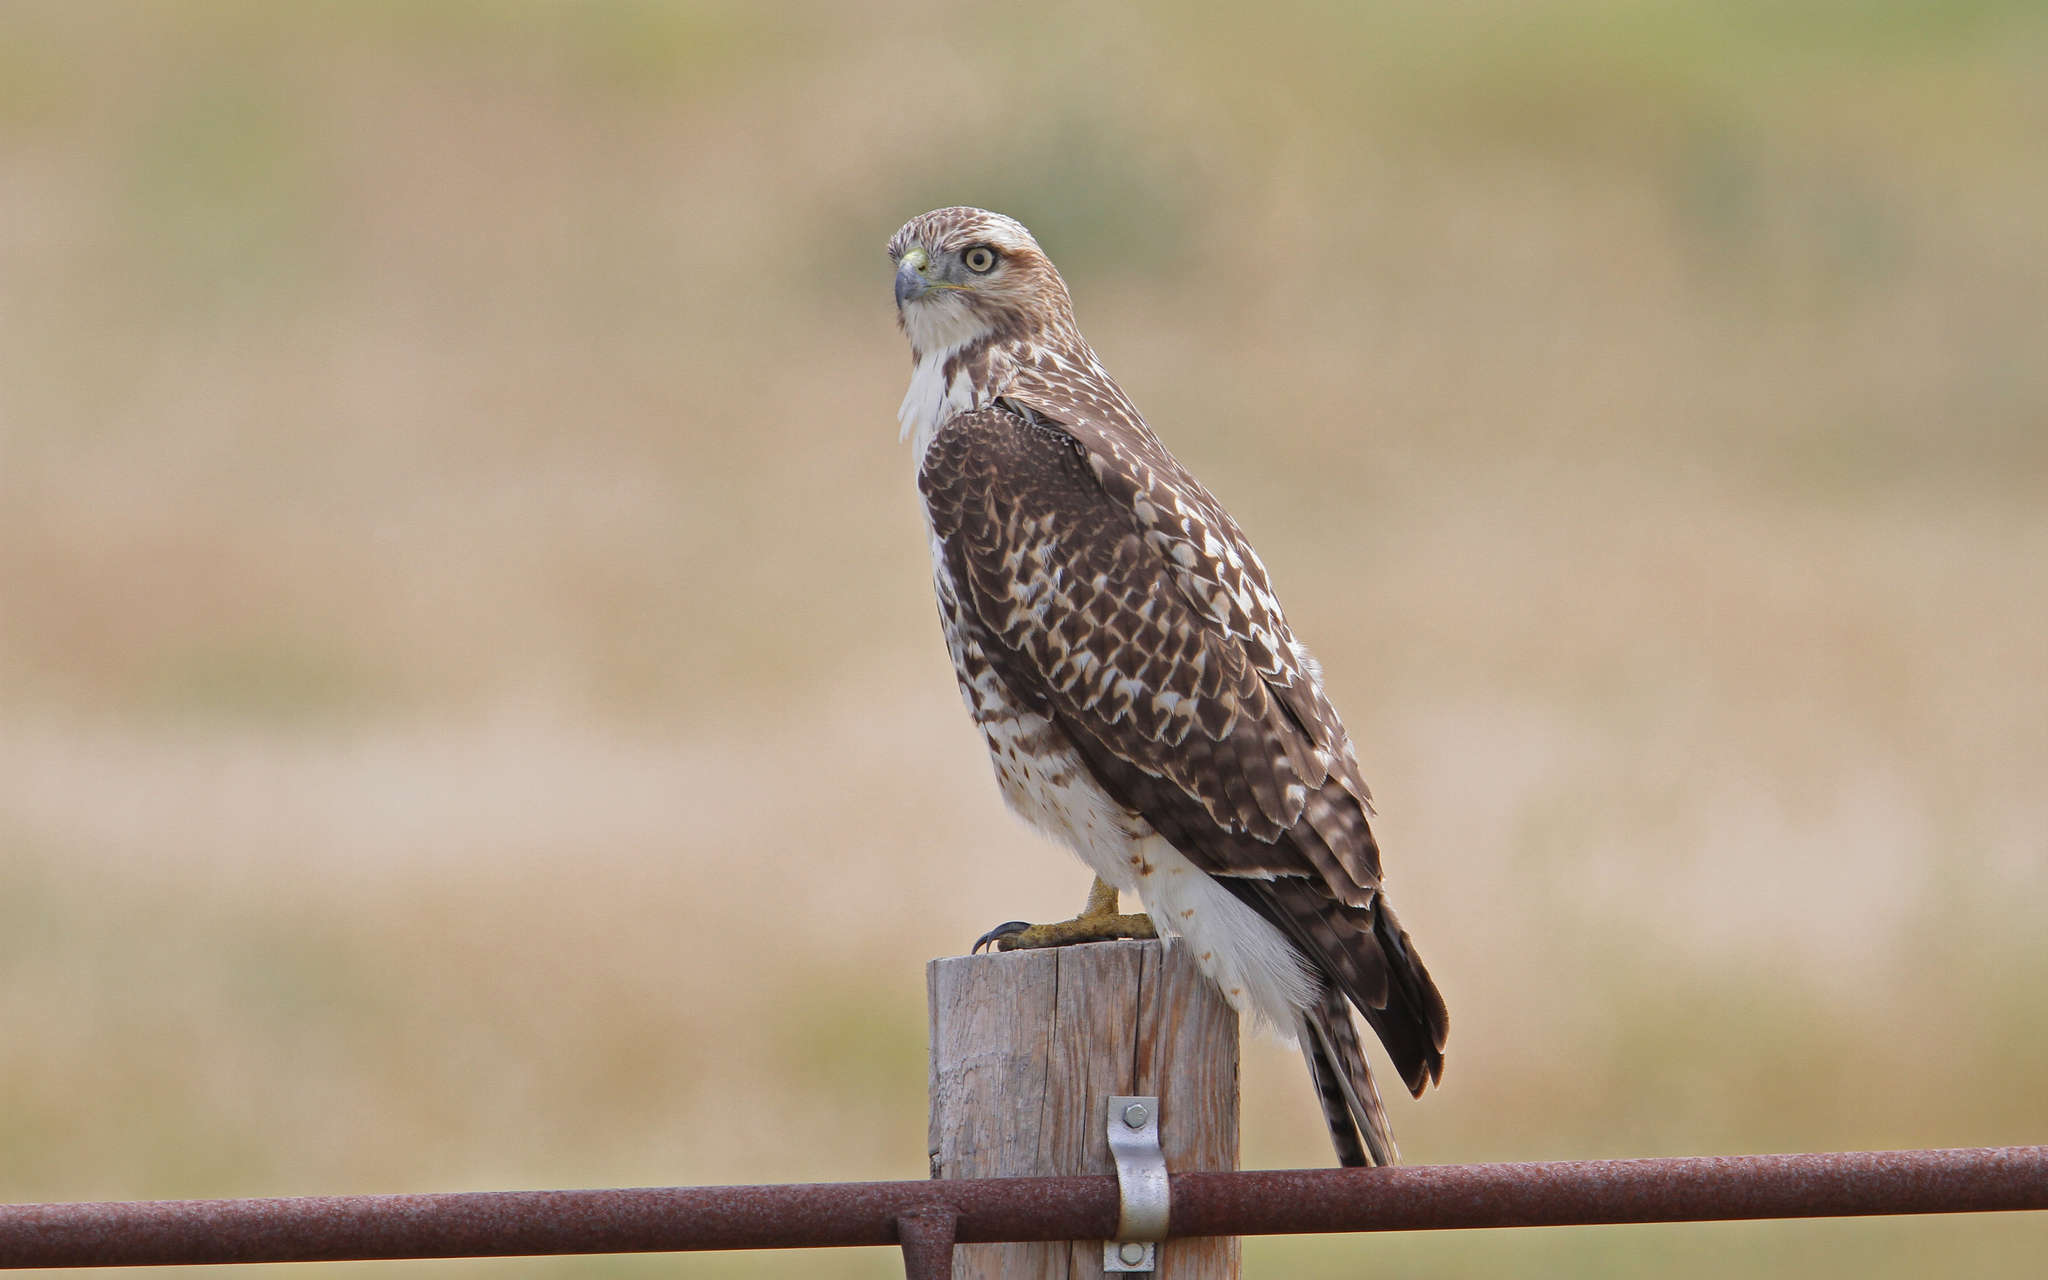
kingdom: Animalia
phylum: Chordata
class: Aves
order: Accipitriformes
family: Accipitridae
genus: Buteo
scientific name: Buteo jamaicensis
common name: Red-tailed hawk
